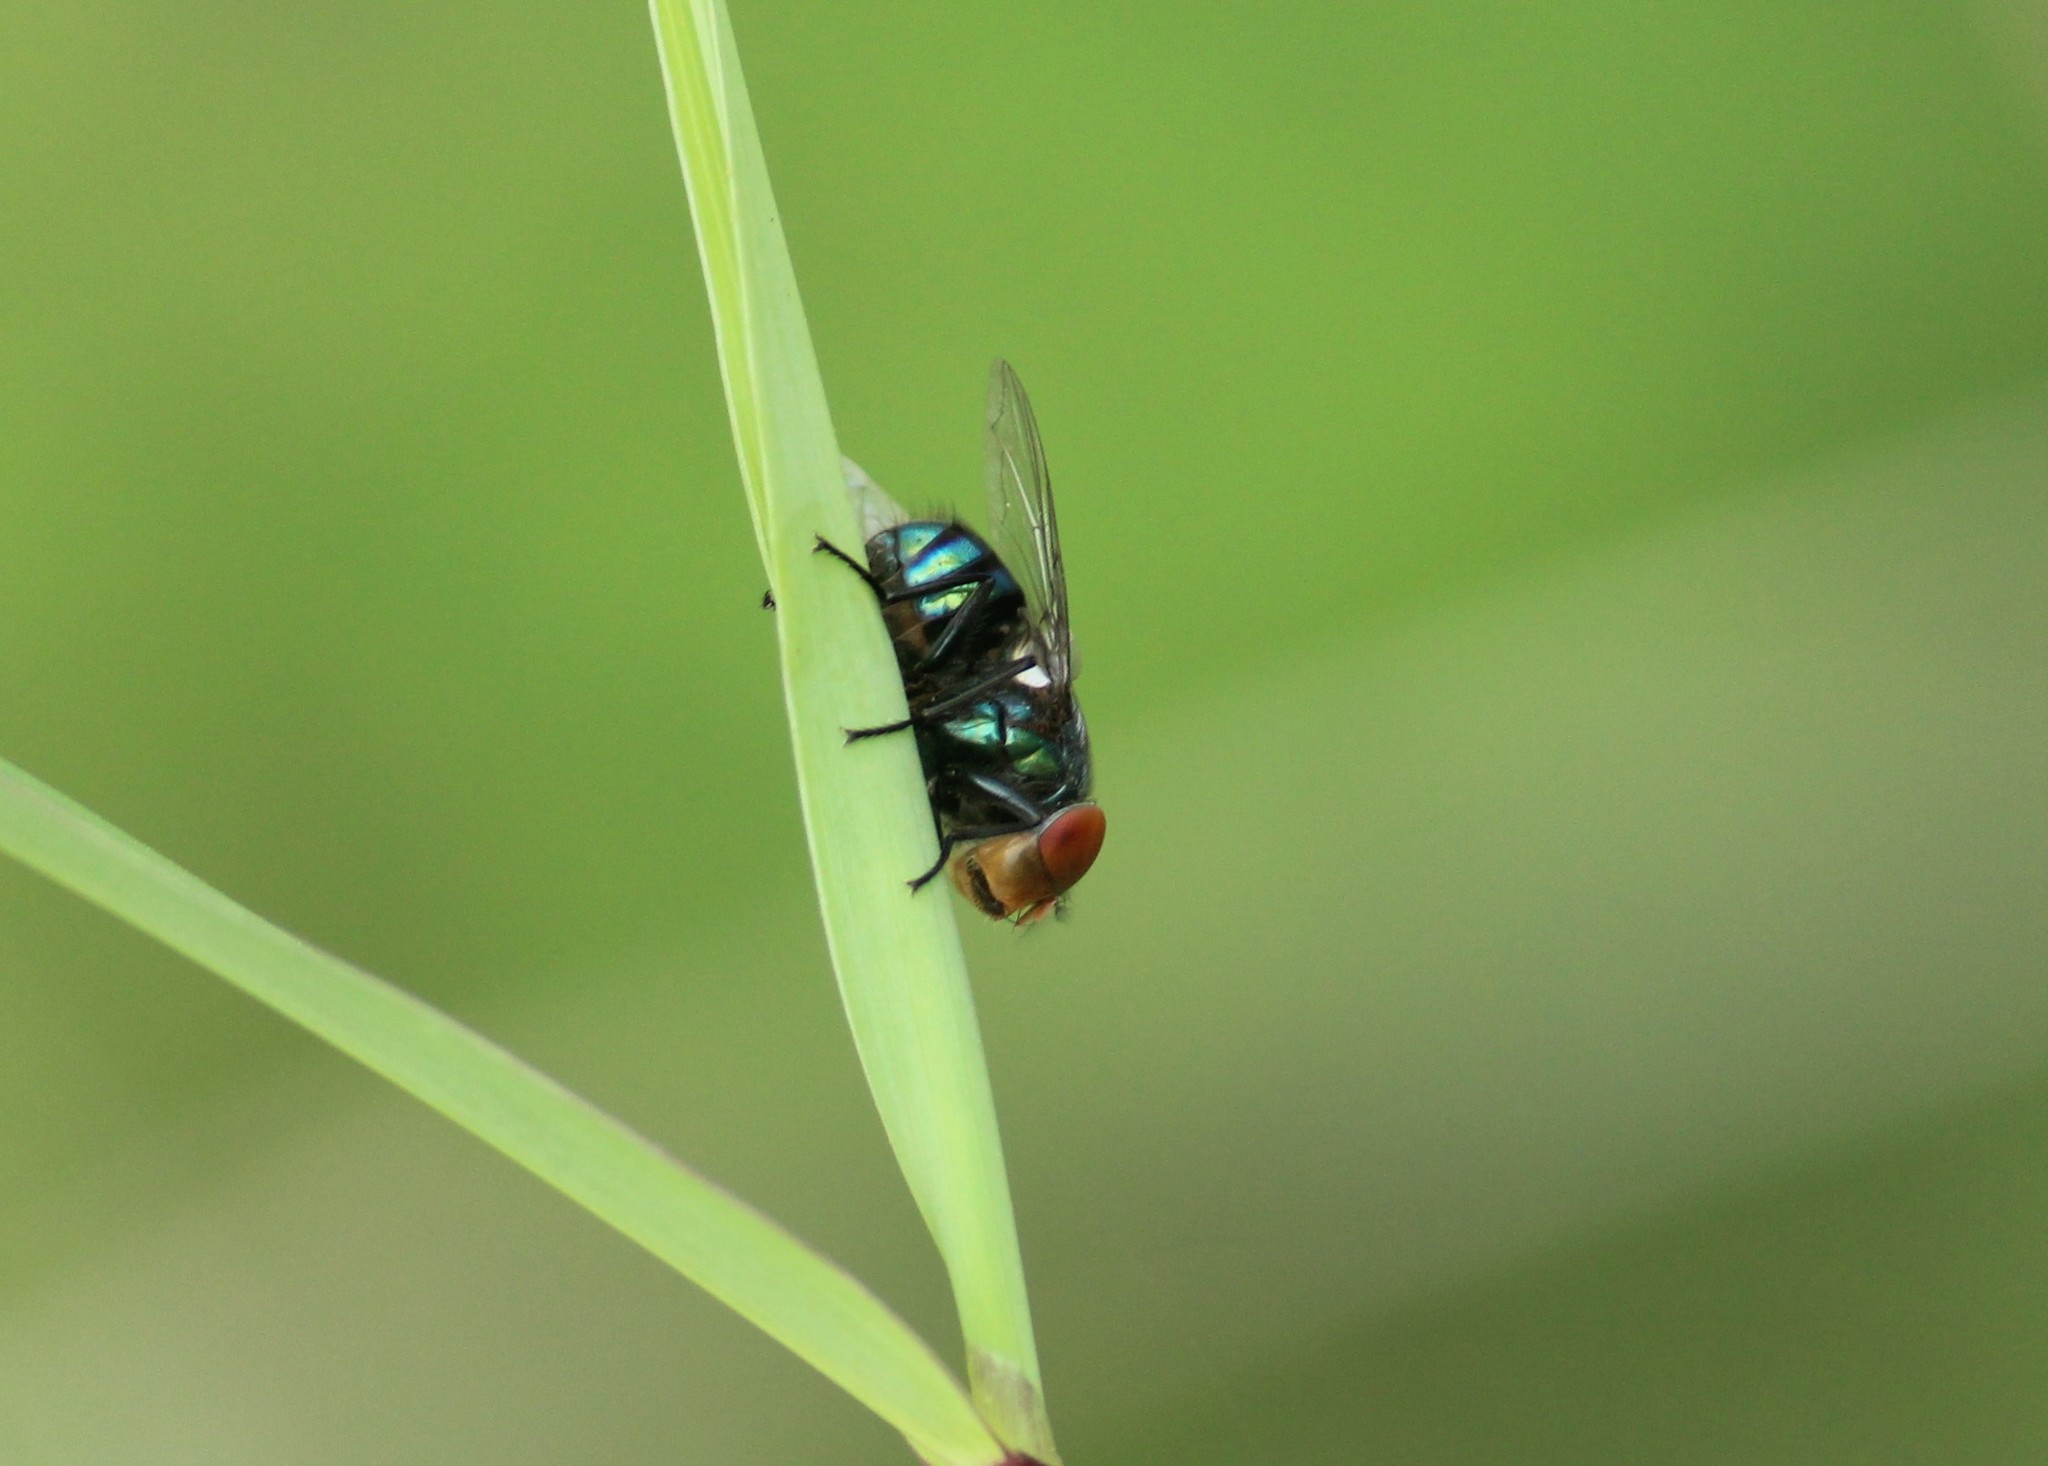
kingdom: Animalia
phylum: Arthropoda
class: Insecta
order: Diptera
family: Calliphoridae
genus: Chrysomya
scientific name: Chrysomya megacephala
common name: Blow fly
